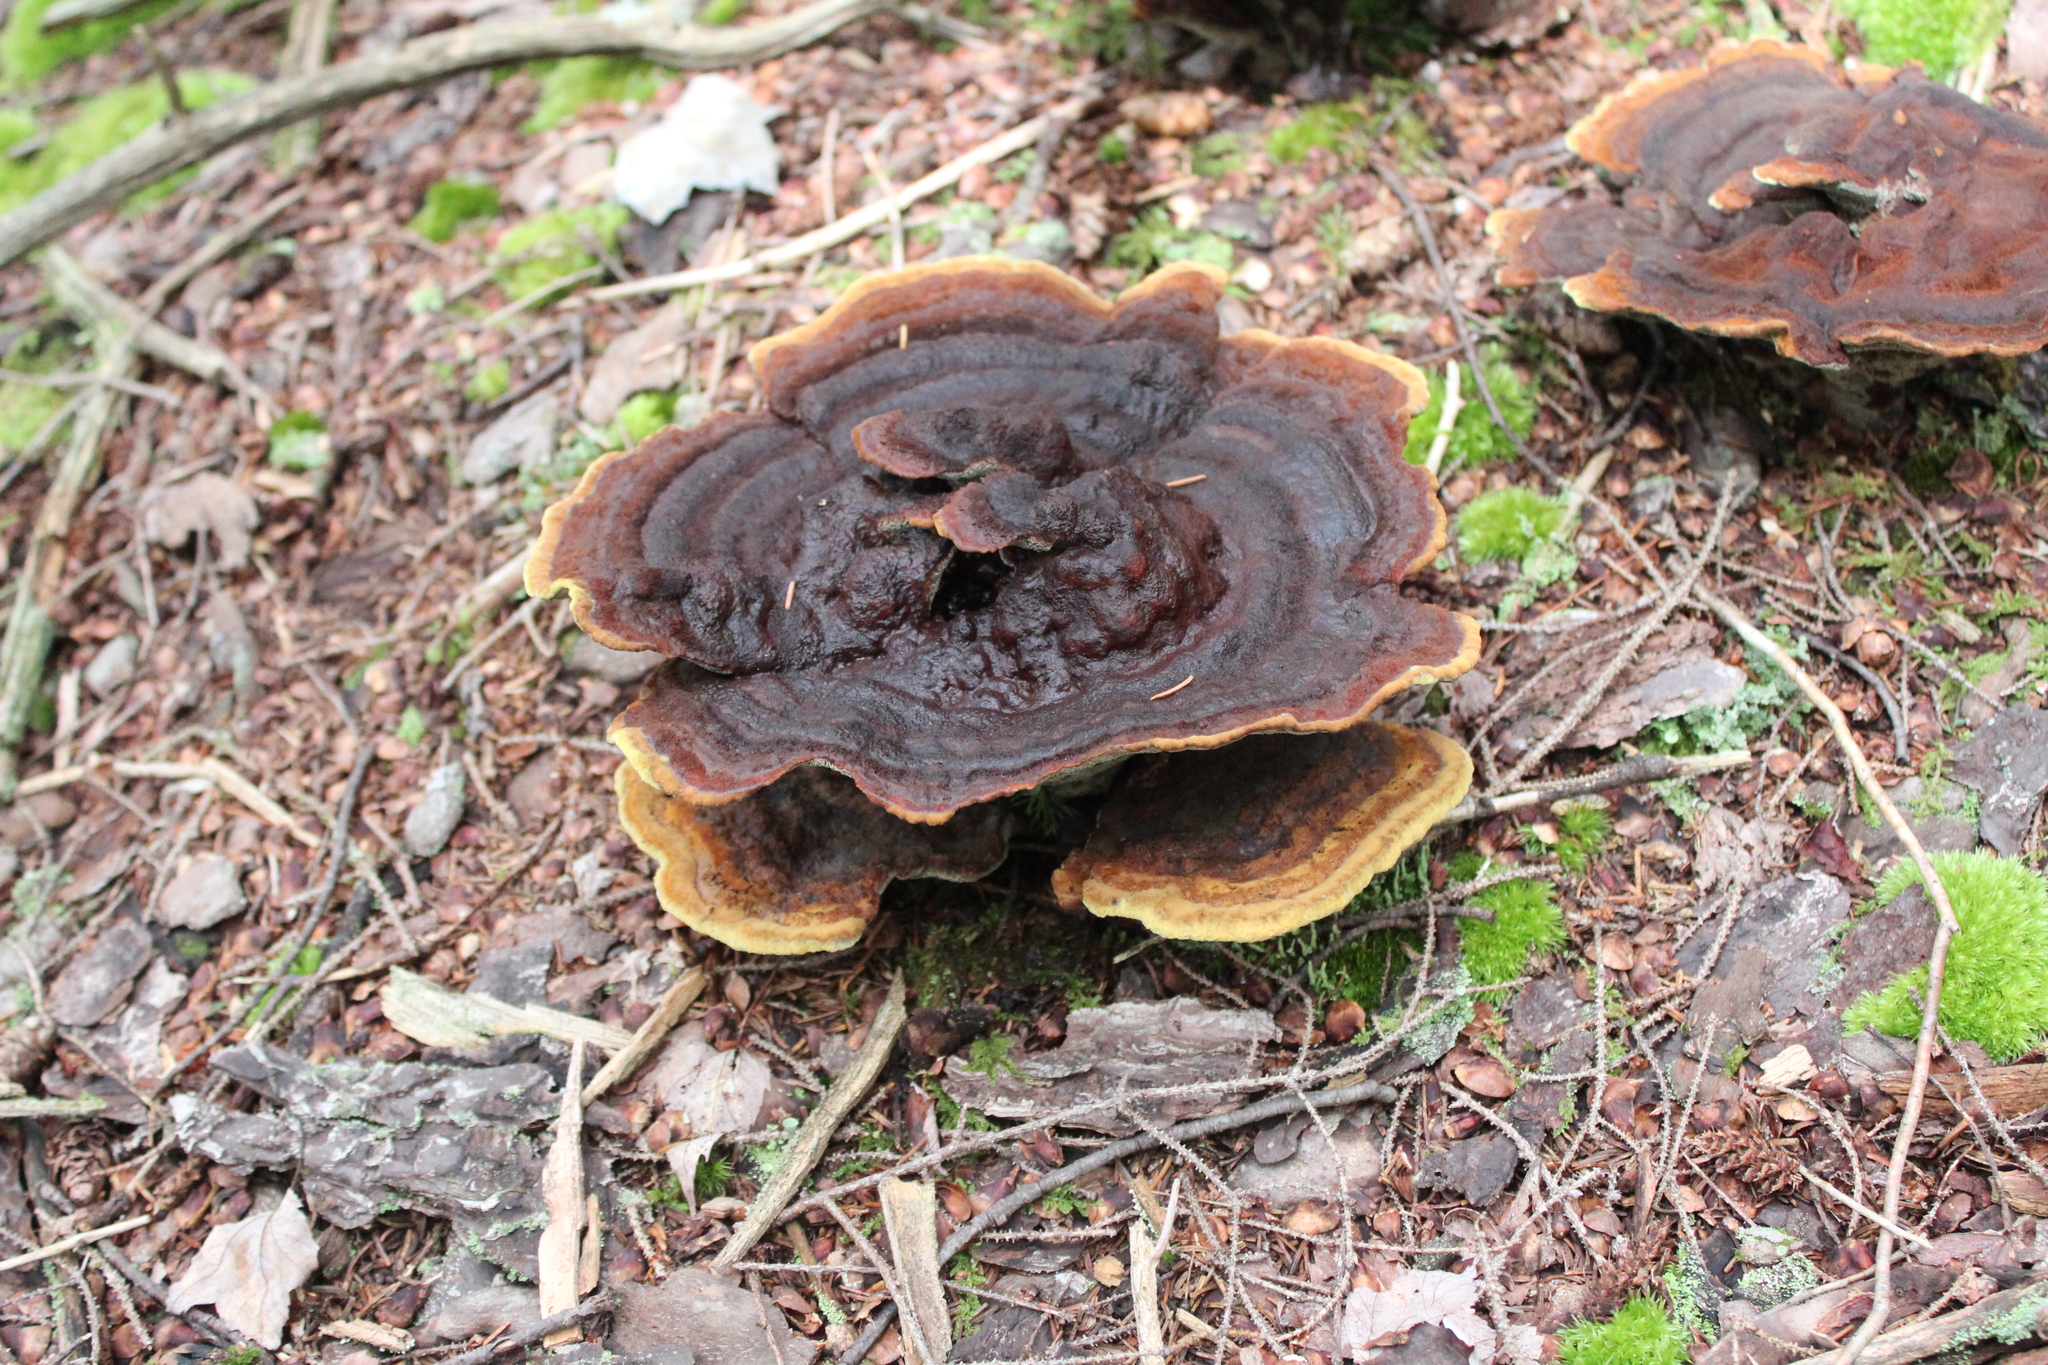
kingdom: Fungi
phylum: Basidiomycota
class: Agaricomycetes
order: Polyporales
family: Laetiporaceae
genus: Phaeolus
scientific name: Phaeolus schweinitzii
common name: Dyer's mazegill
